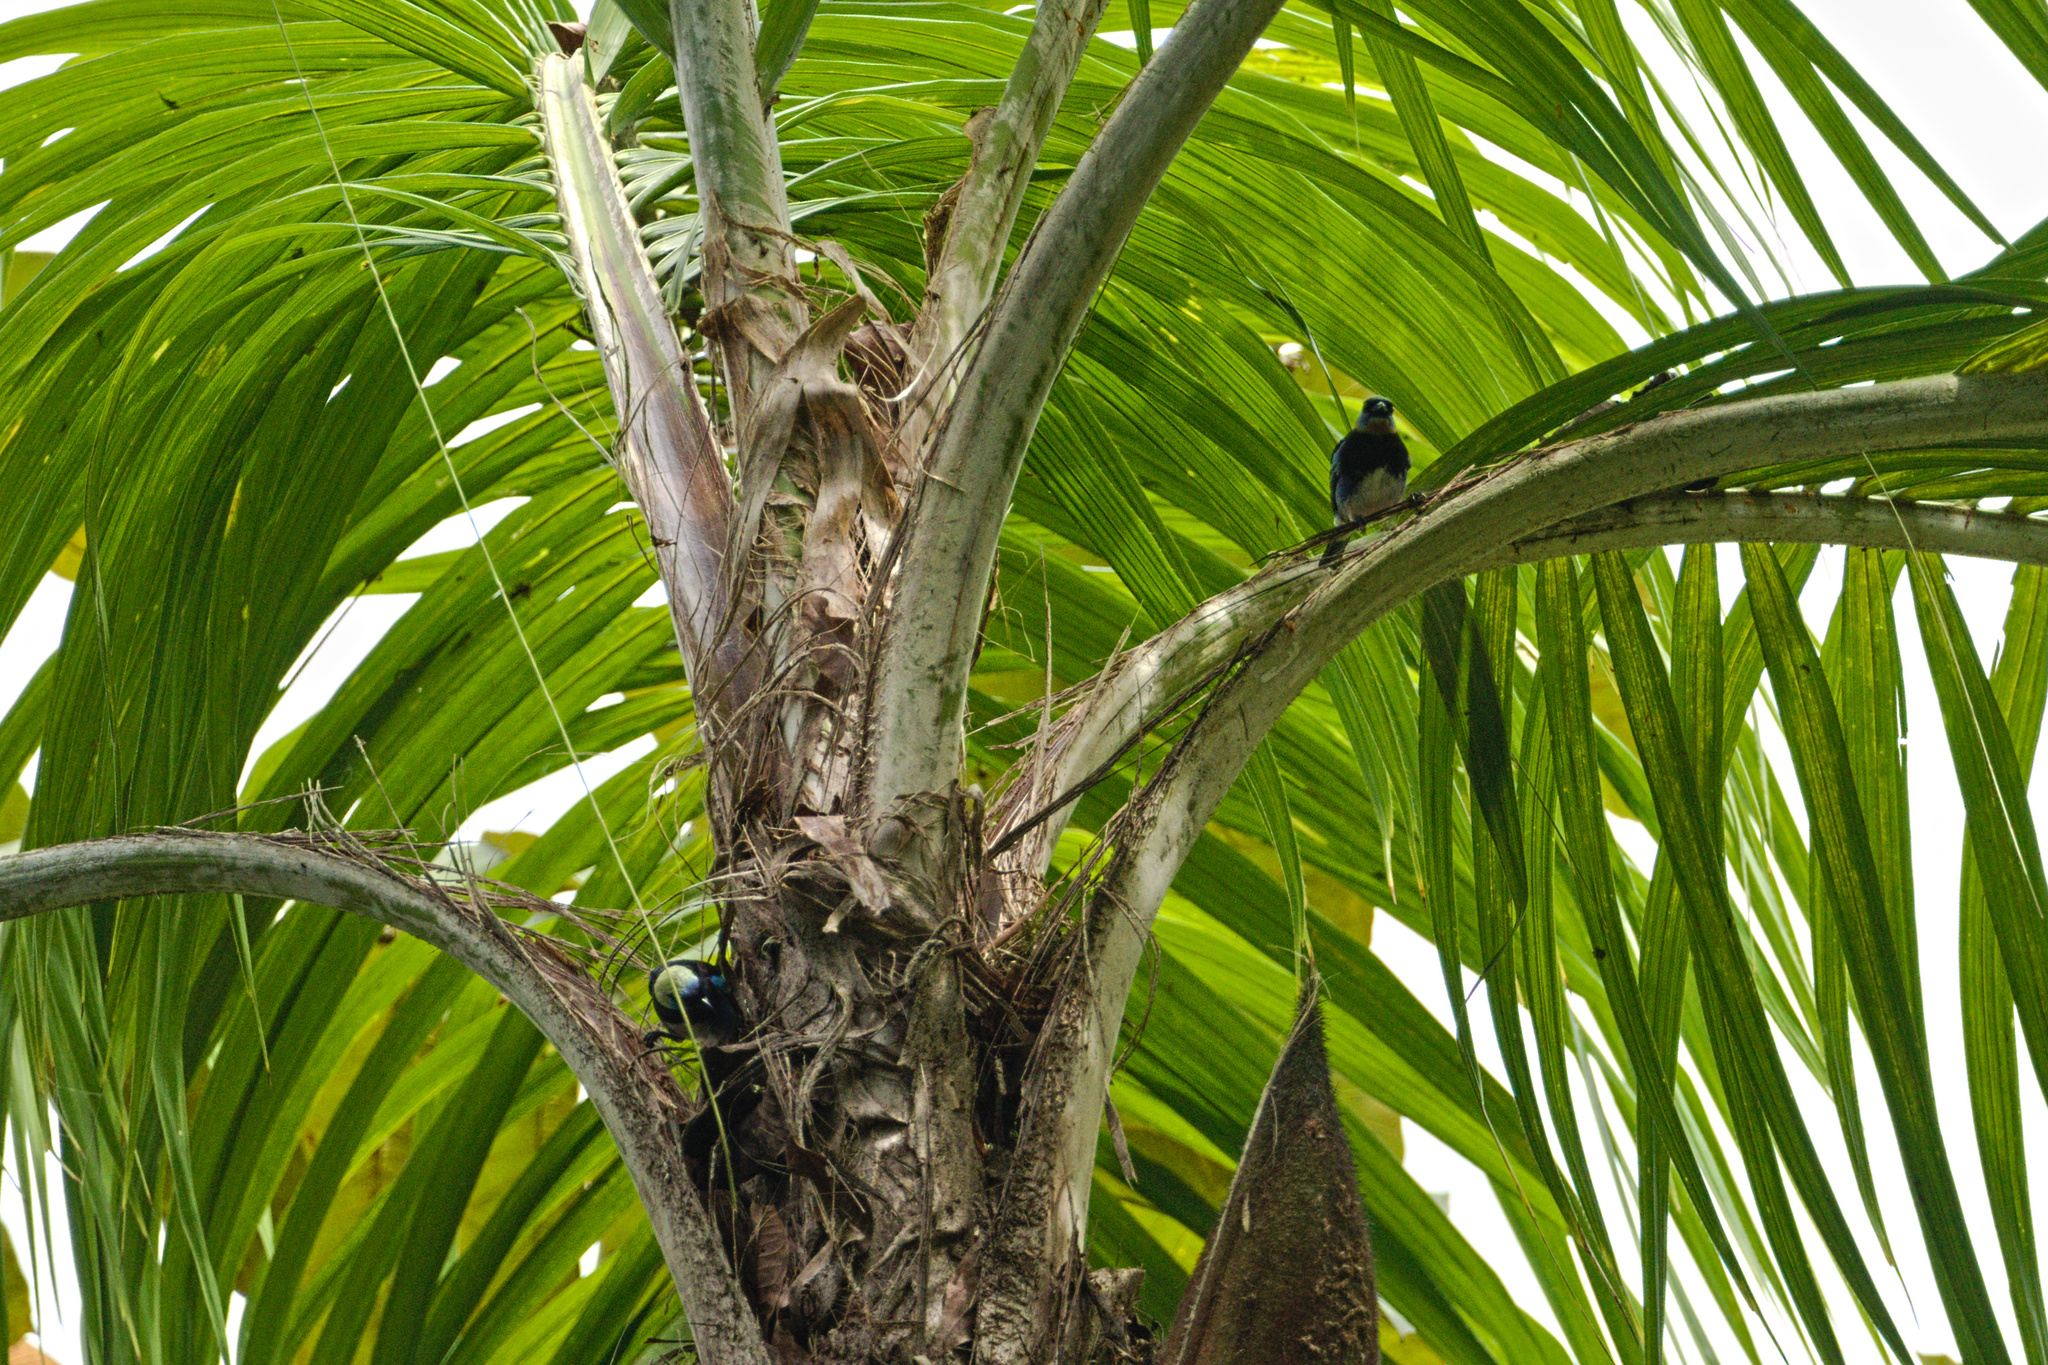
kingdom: Animalia
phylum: Chordata
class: Aves
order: Passeriformes
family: Thraupidae
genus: Stilpnia
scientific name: Stilpnia larvata
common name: Golden-hooded tanager
